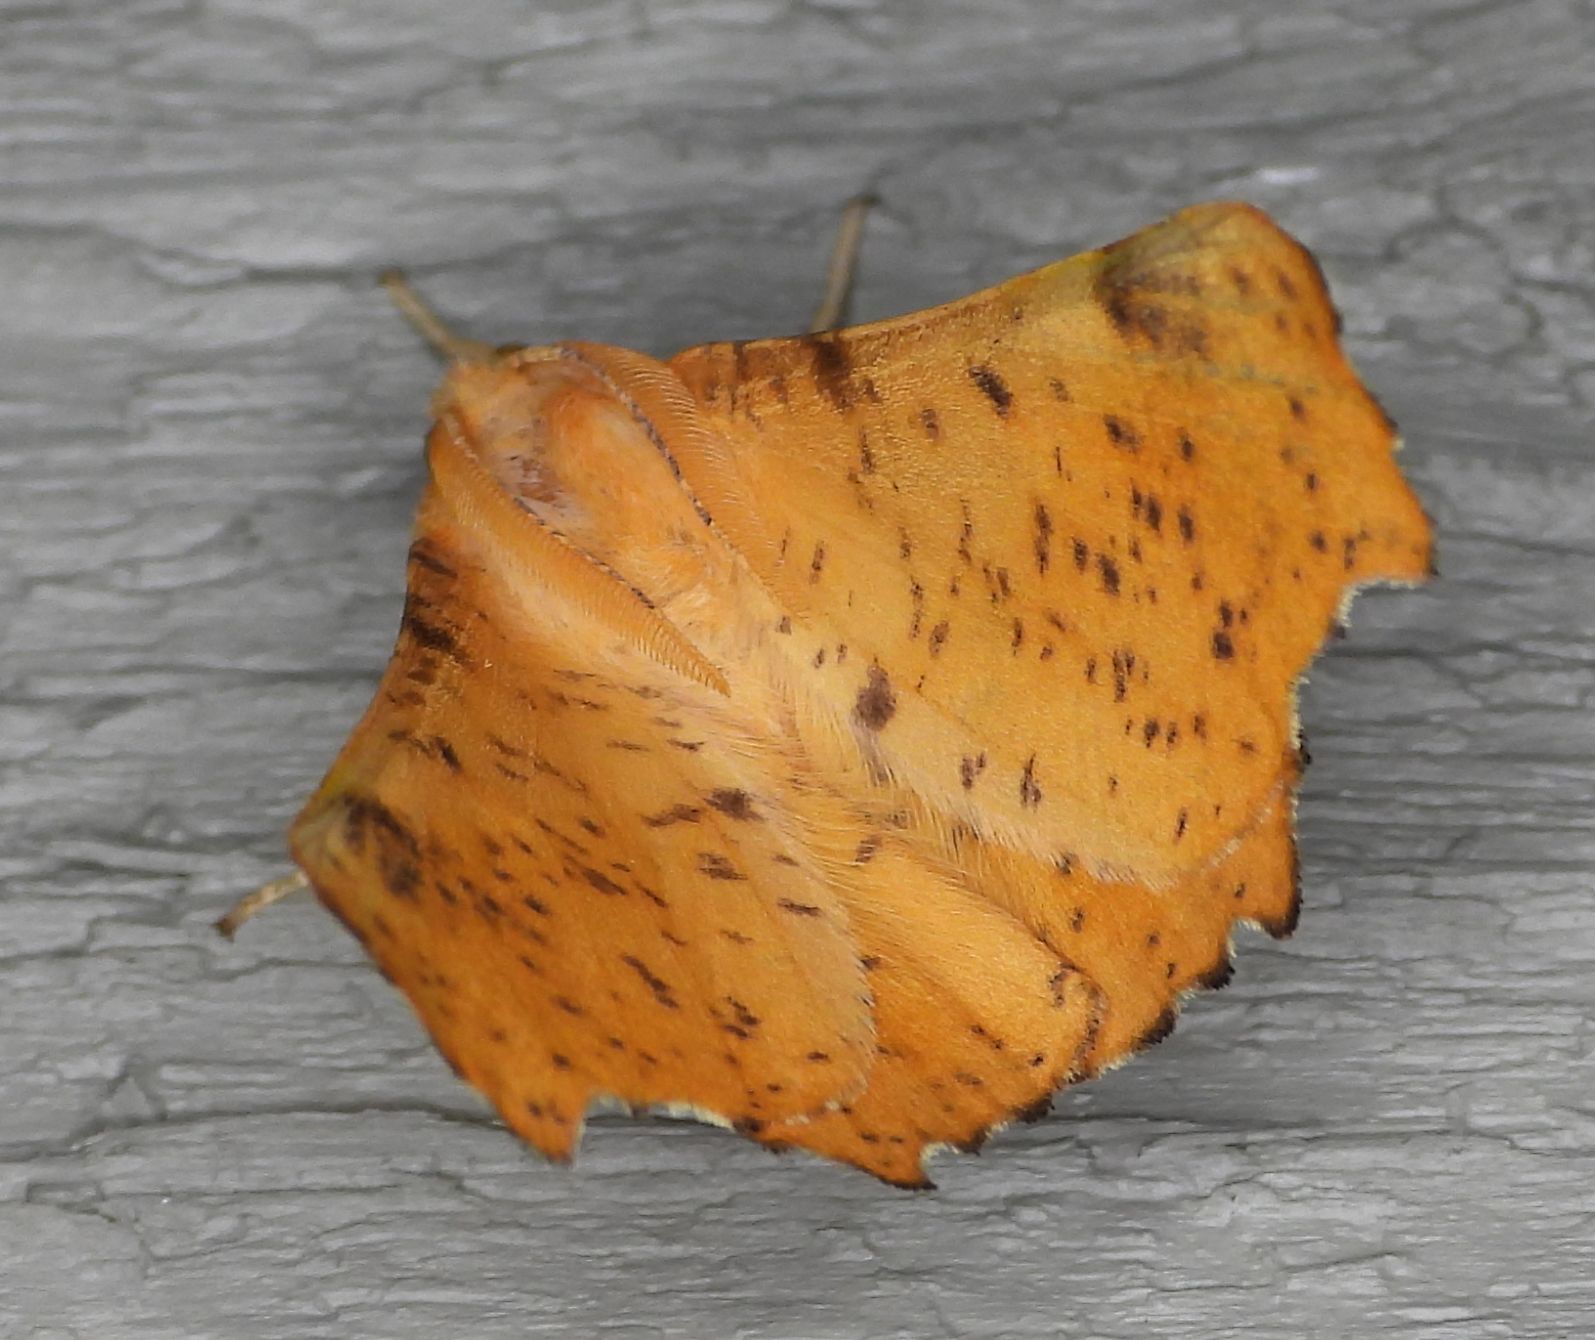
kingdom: Animalia
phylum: Arthropoda
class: Insecta
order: Lepidoptera
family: Geometridae
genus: Ennomos
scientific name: Ennomos magnaria
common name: Maple spanworm
